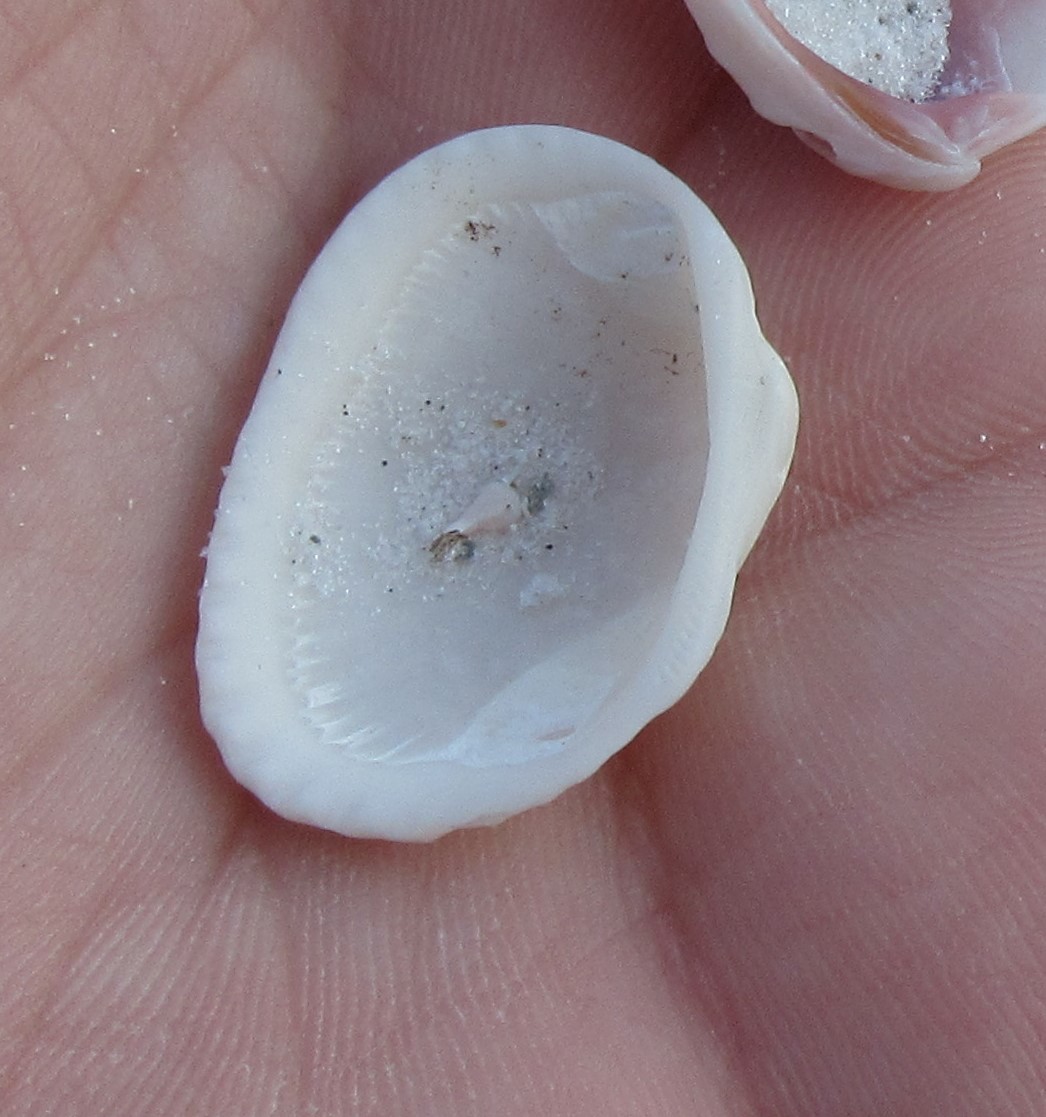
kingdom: Animalia
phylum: Mollusca
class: Bivalvia
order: Arcida
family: Arcidae
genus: Anadara
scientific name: Anadara transversa
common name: Transverse ark
